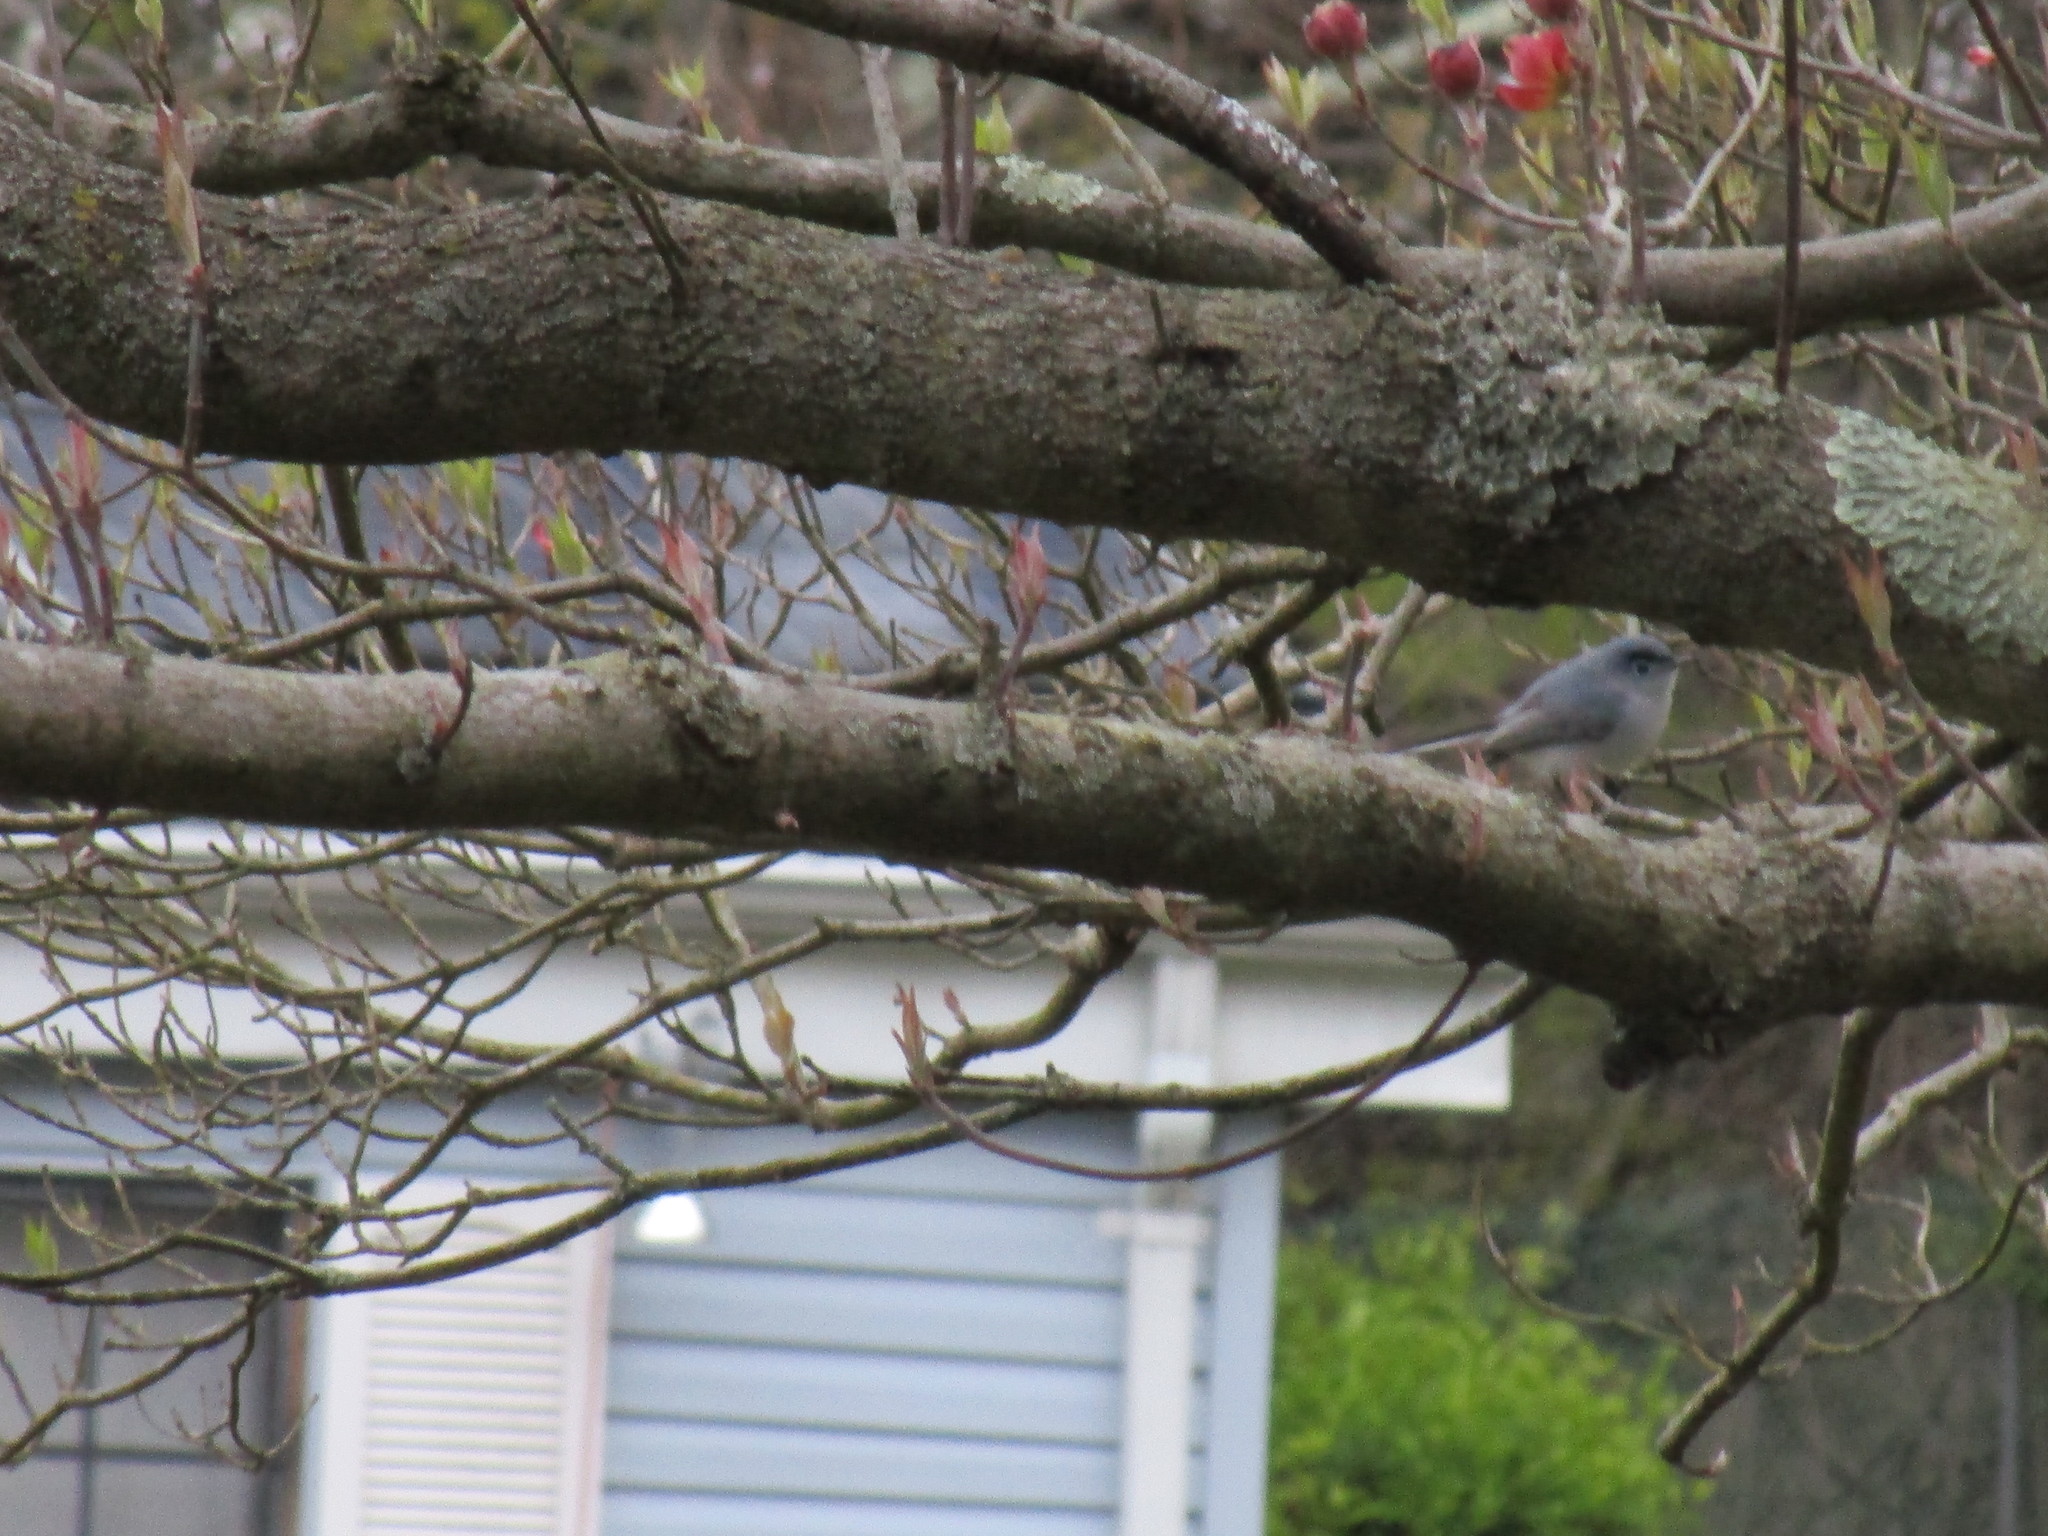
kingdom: Animalia
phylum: Chordata
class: Aves
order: Passeriformes
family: Polioptilidae
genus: Polioptila
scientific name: Polioptila caerulea
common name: Blue-gray gnatcatcher
